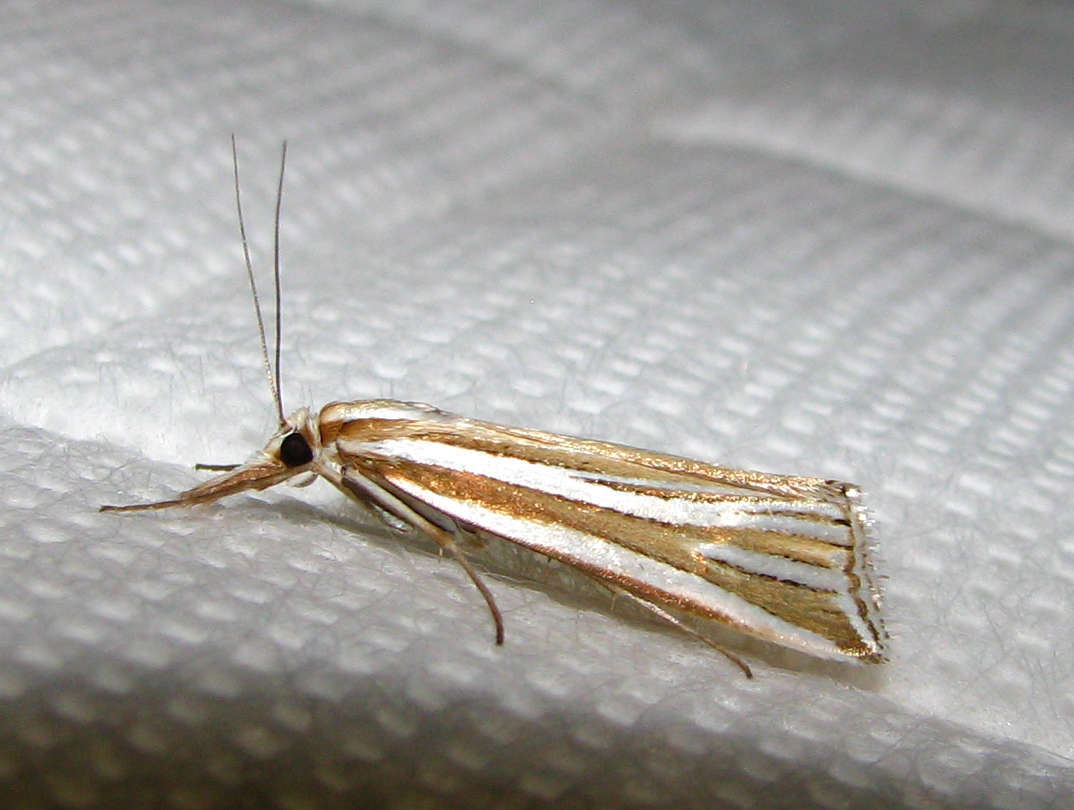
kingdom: Animalia
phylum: Arthropoda
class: Insecta
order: Lepidoptera
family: Crambidae
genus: Hednota
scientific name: Hednota relatalis
